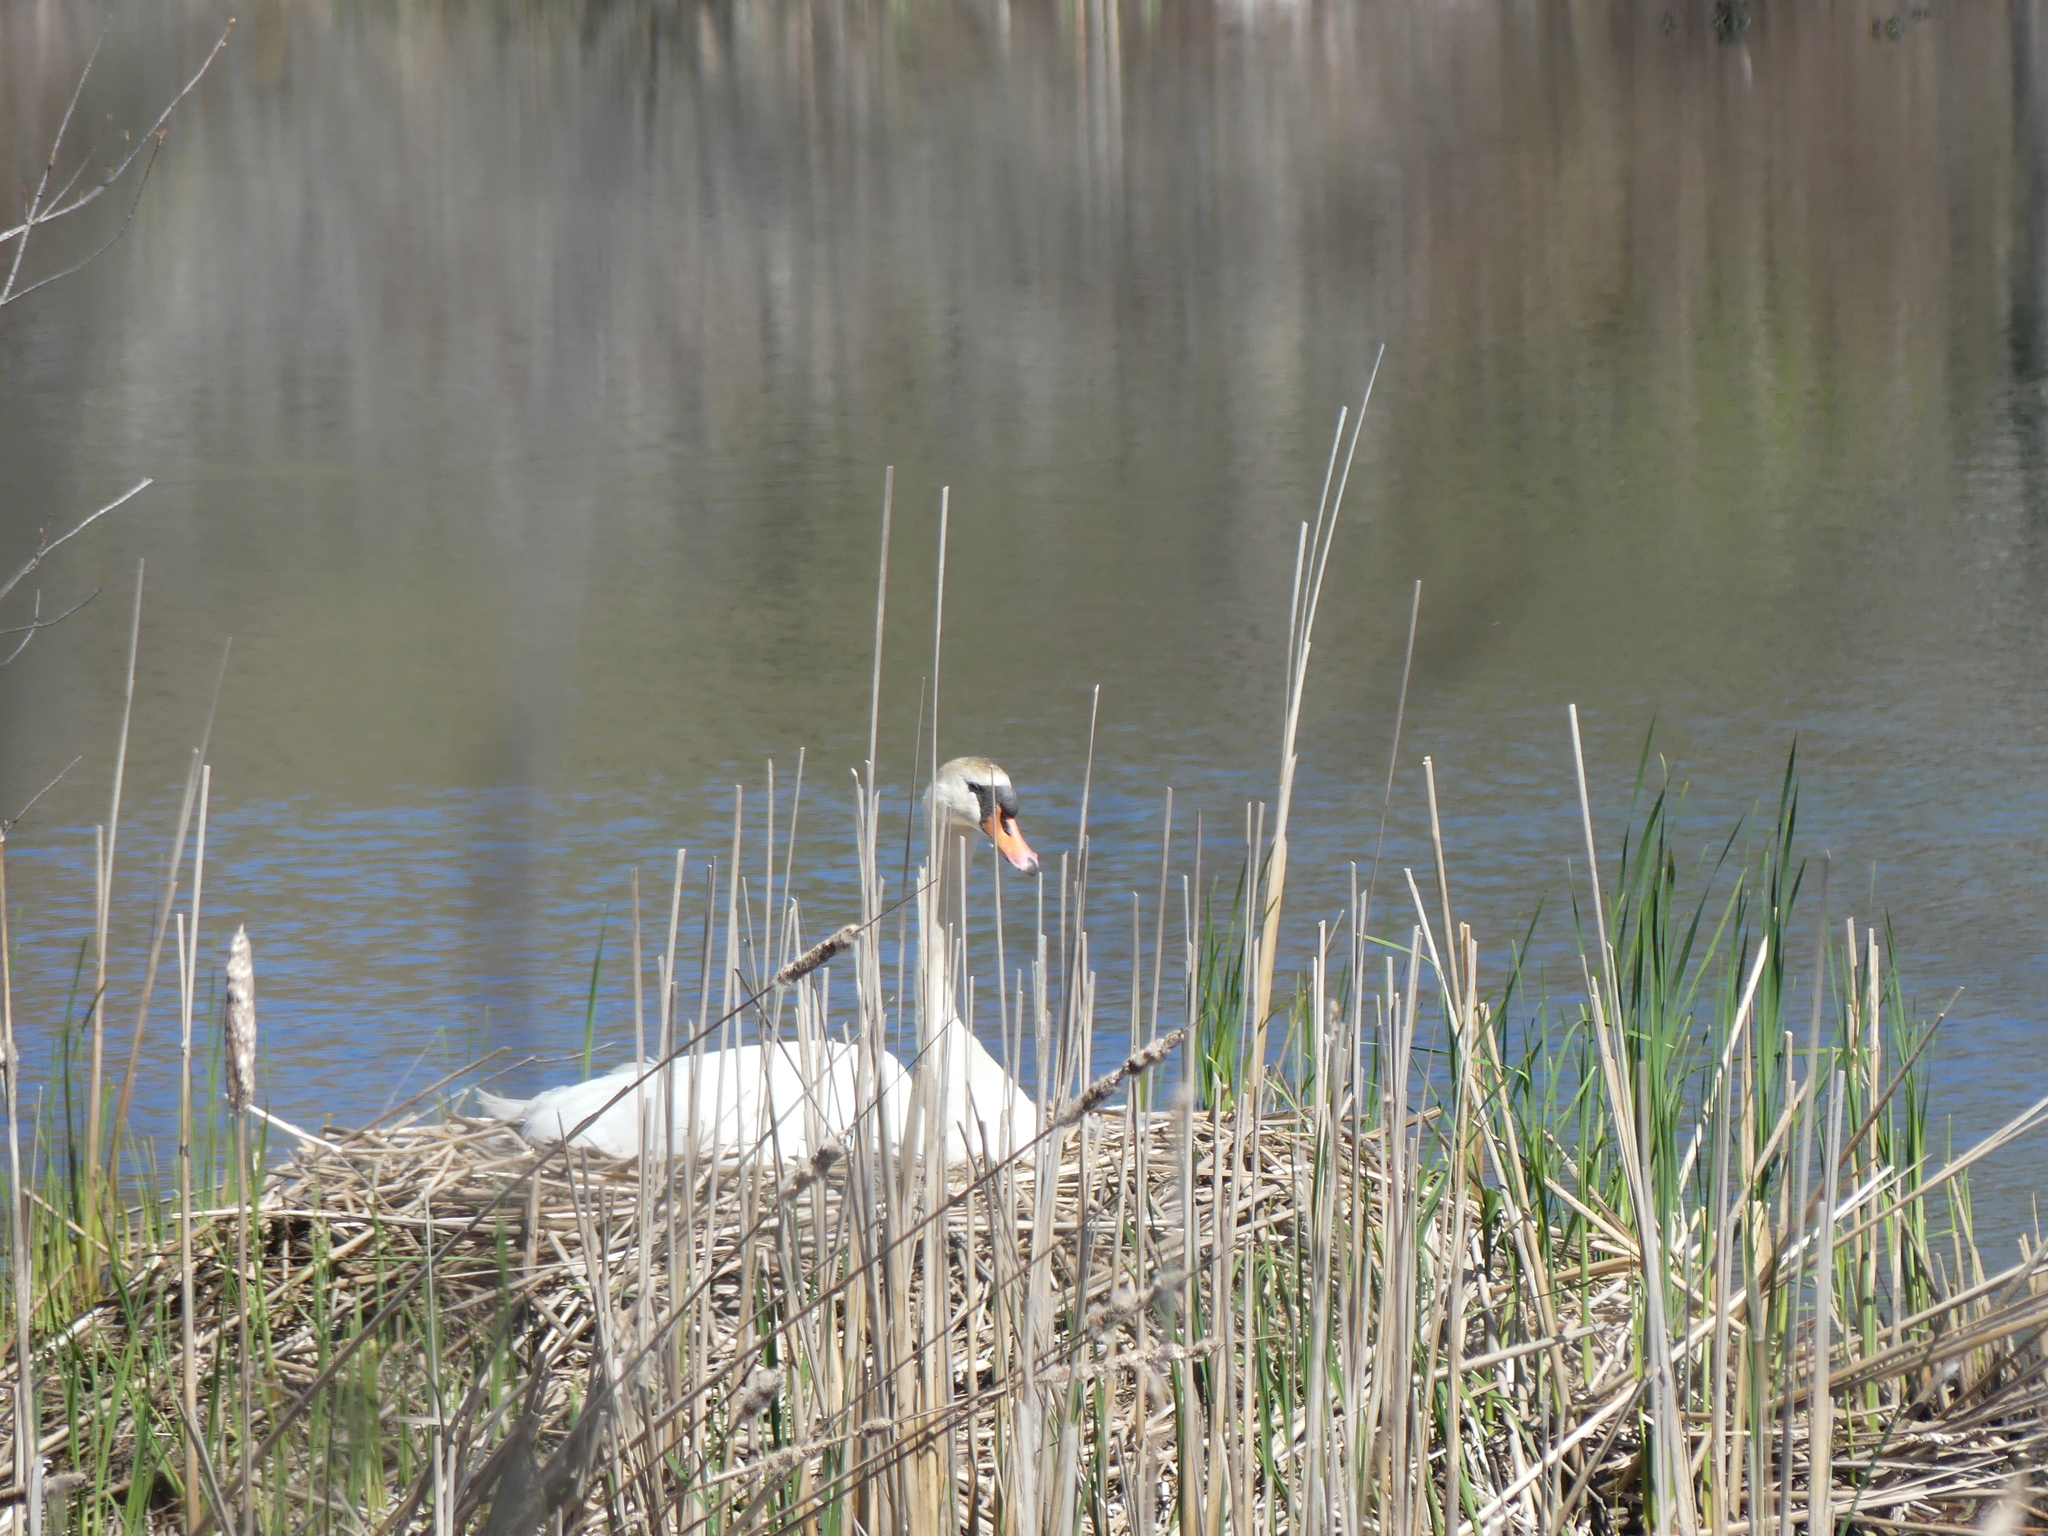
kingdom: Animalia
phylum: Chordata
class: Aves
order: Anseriformes
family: Anatidae
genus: Cygnus
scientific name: Cygnus olor
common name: Mute swan
